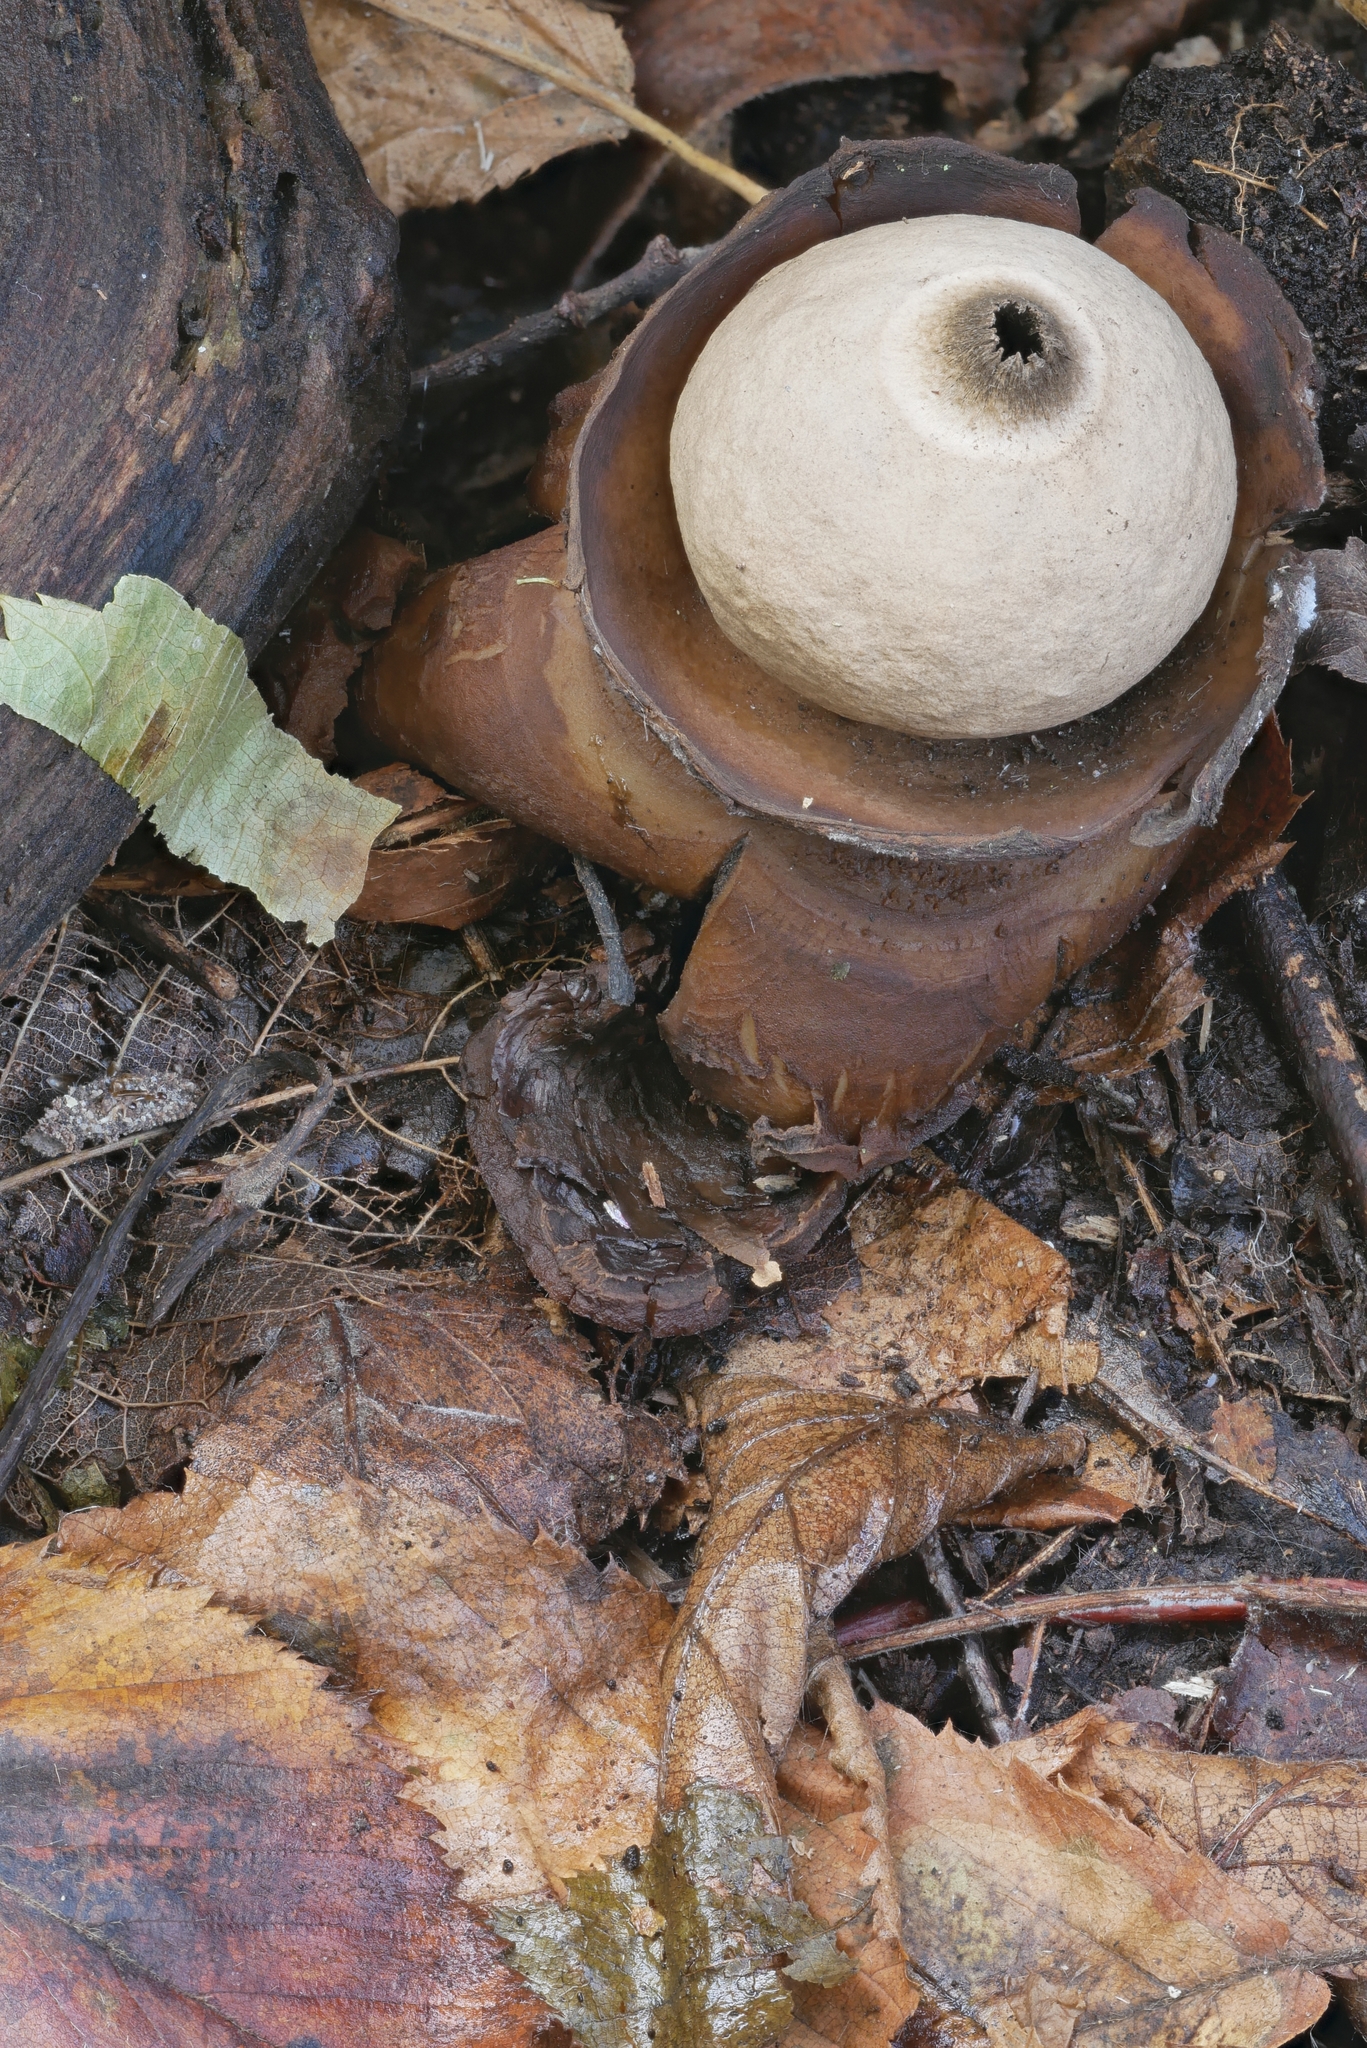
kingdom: Fungi
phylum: Basidiomycota
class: Agaricomycetes
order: Geastrales
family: Geastraceae
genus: Geastrum
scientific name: Geastrum triplex
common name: Collared earthstar
